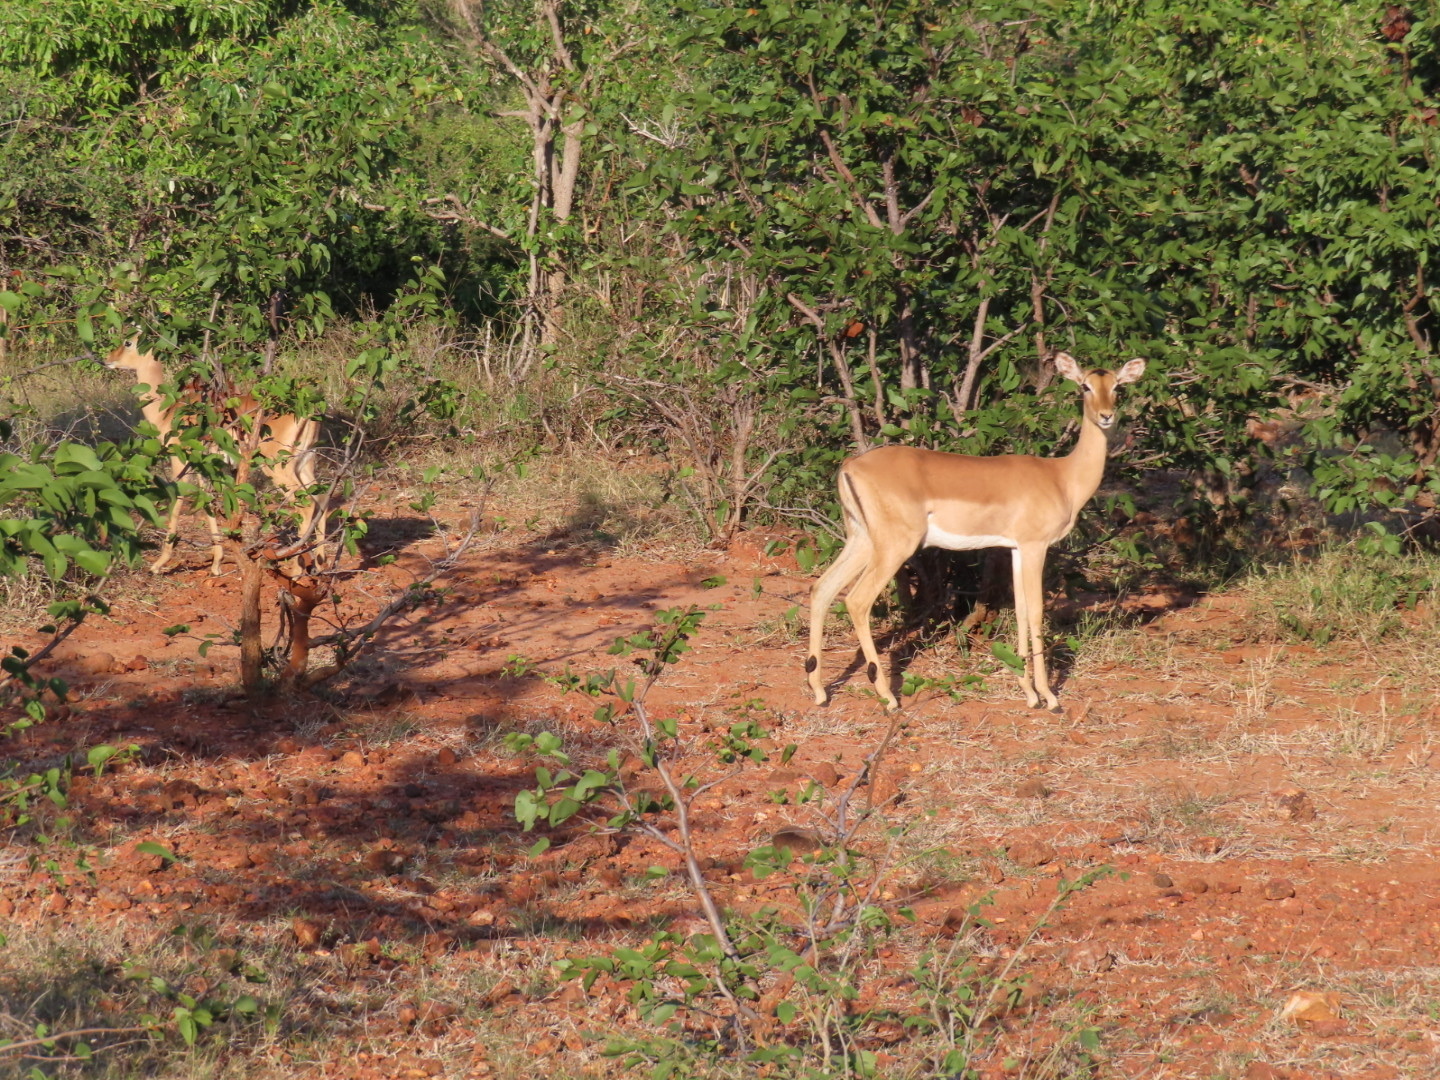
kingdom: Animalia
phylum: Chordata
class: Mammalia
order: Artiodactyla
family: Bovidae
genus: Aepyceros
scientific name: Aepyceros melampus
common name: Impala
